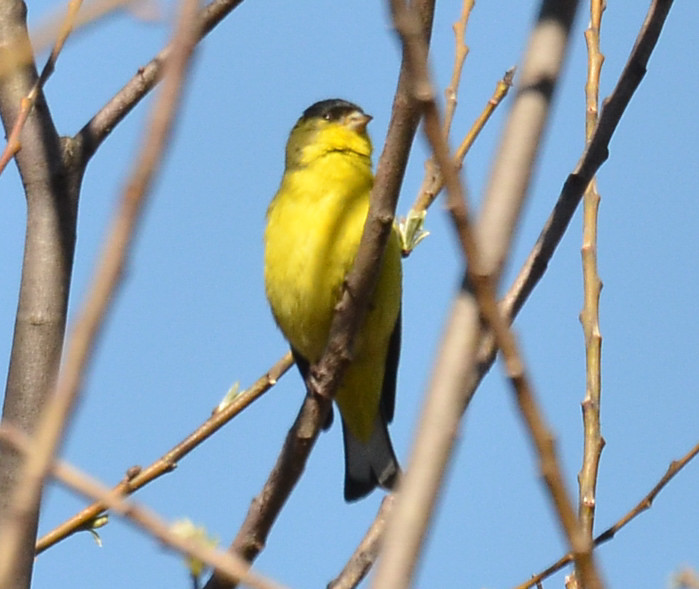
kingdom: Animalia
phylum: Chordata
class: Aves
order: Passeriformes
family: Fringillidae
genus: Spinus
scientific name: Spinus psaltria
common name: Lesser goldfinch
